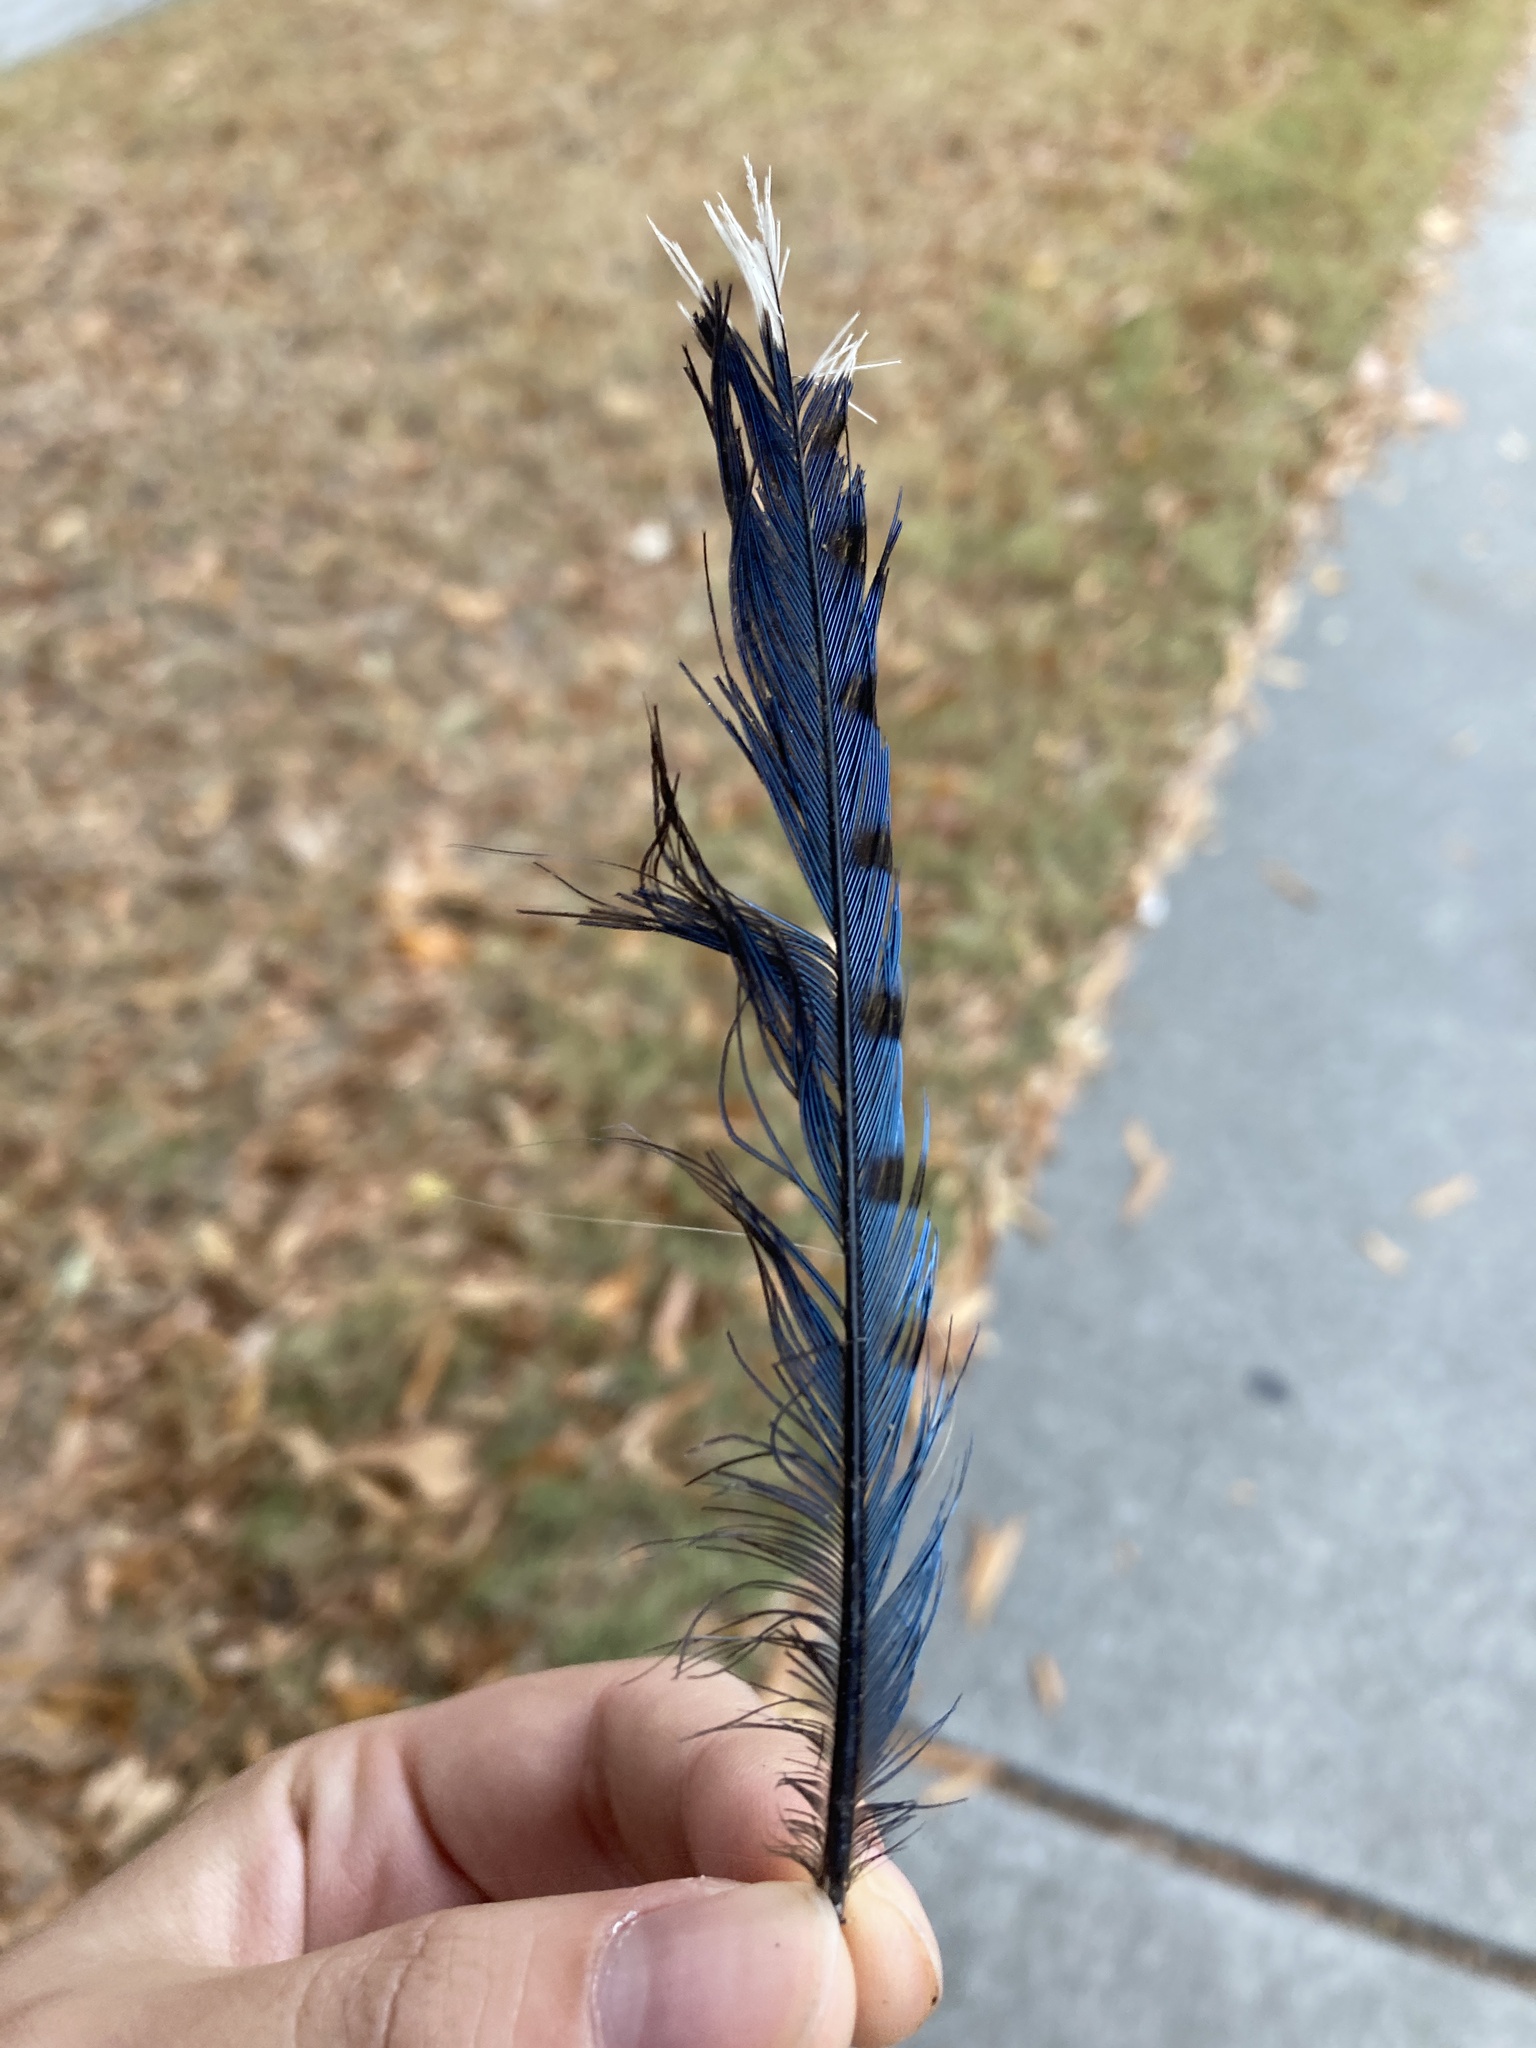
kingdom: Animalia
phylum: Chordata
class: Aves
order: Passeriformes
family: Corvidae
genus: Cyanocitta
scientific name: Cyanocitta cristata
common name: Blue jay
